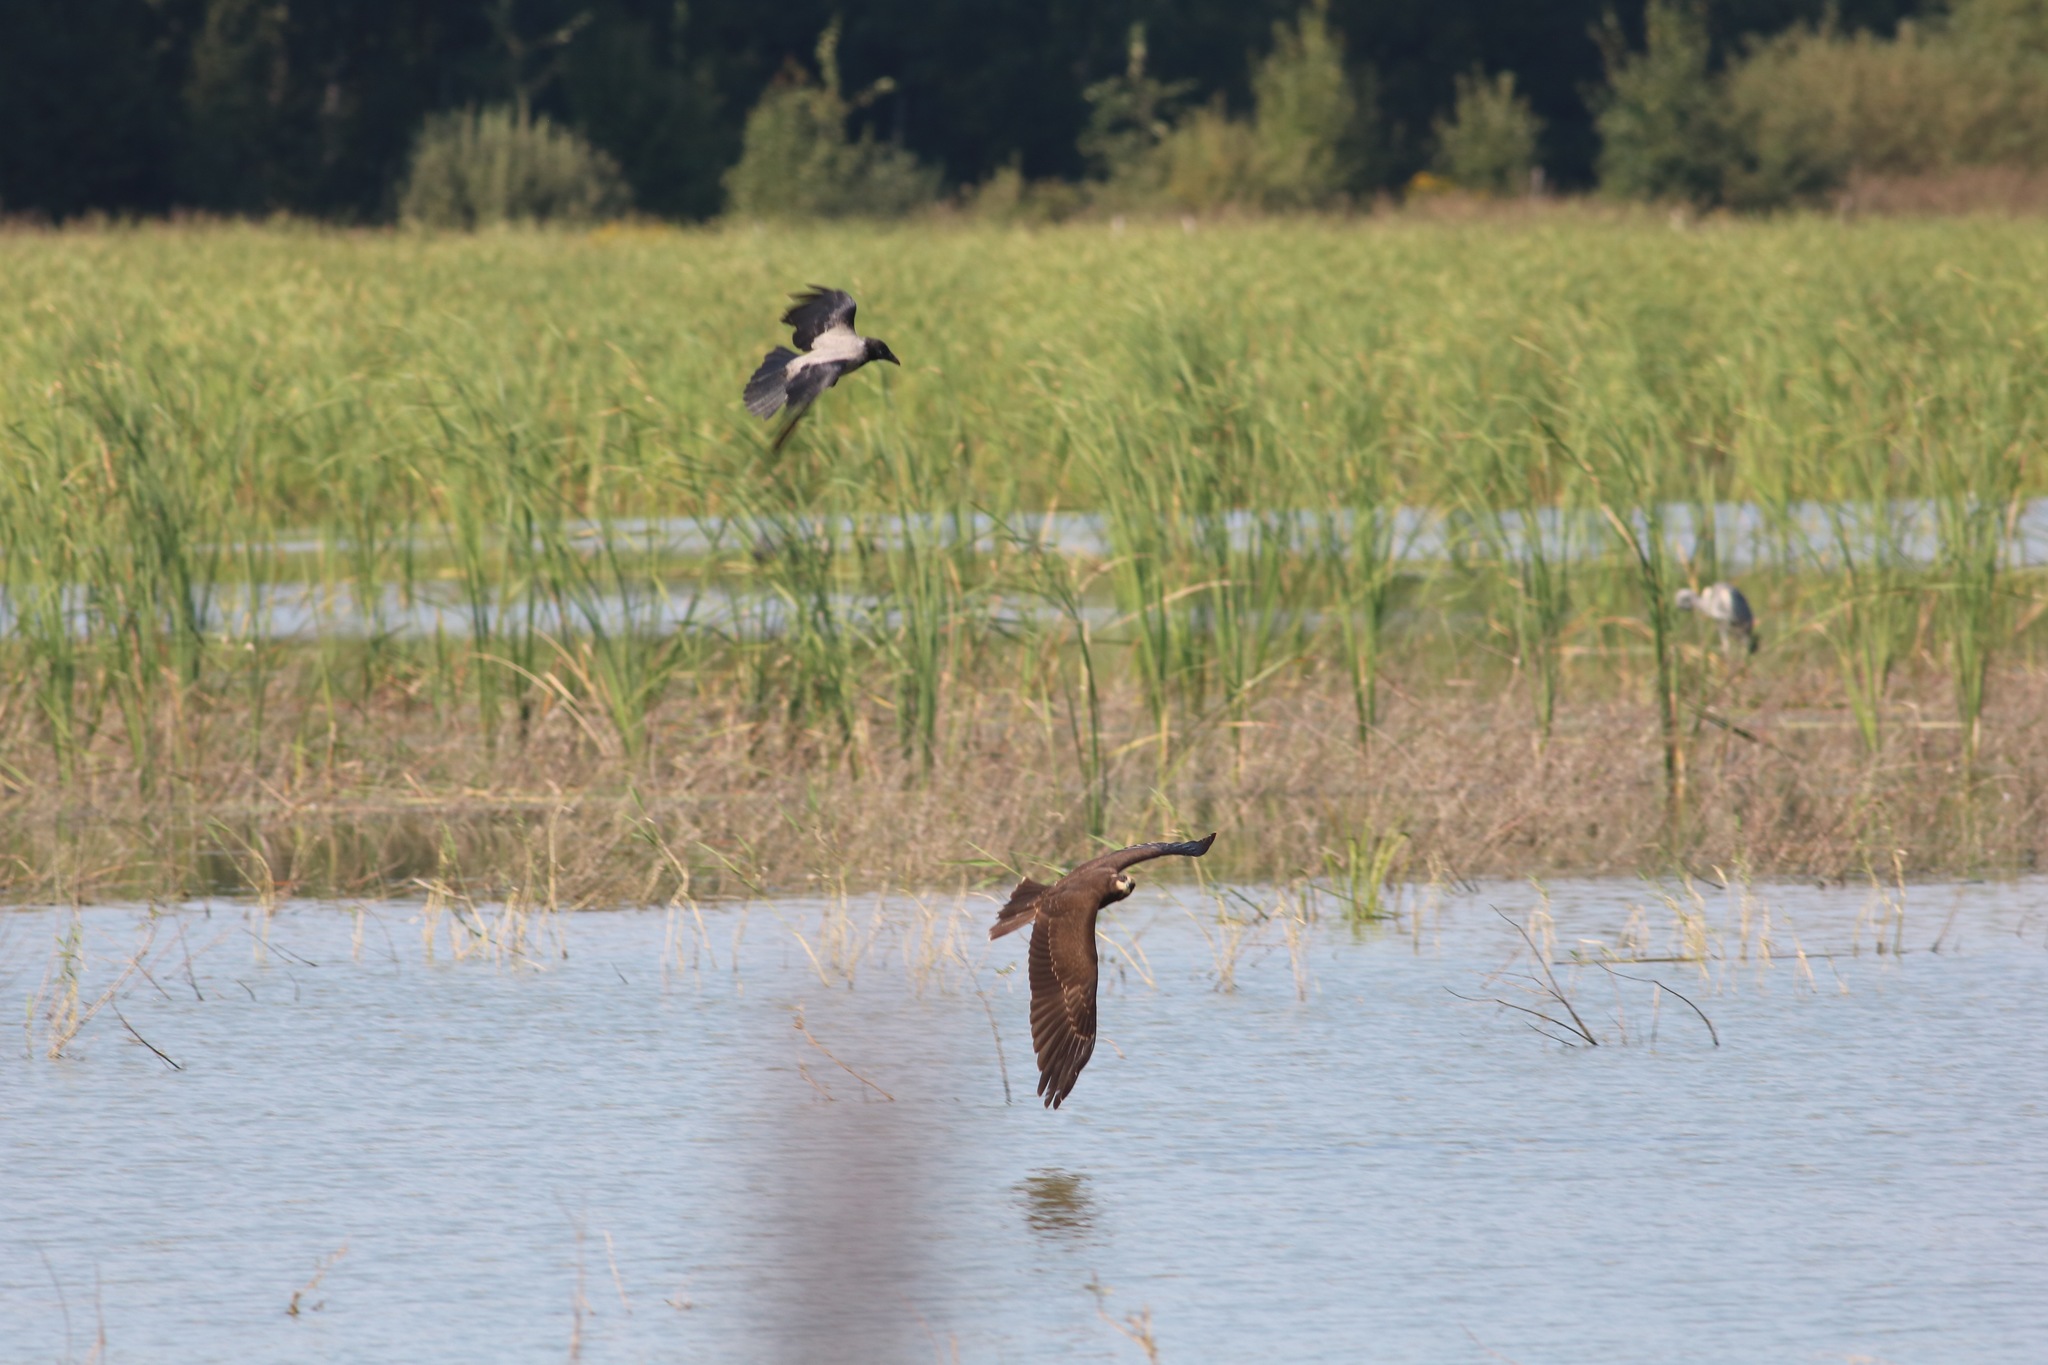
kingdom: Animalia
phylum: Chordata
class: Aves
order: Accipitriformes
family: Accipitridae
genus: Circus
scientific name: Circus aeruginosus
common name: Western marsh harrier
